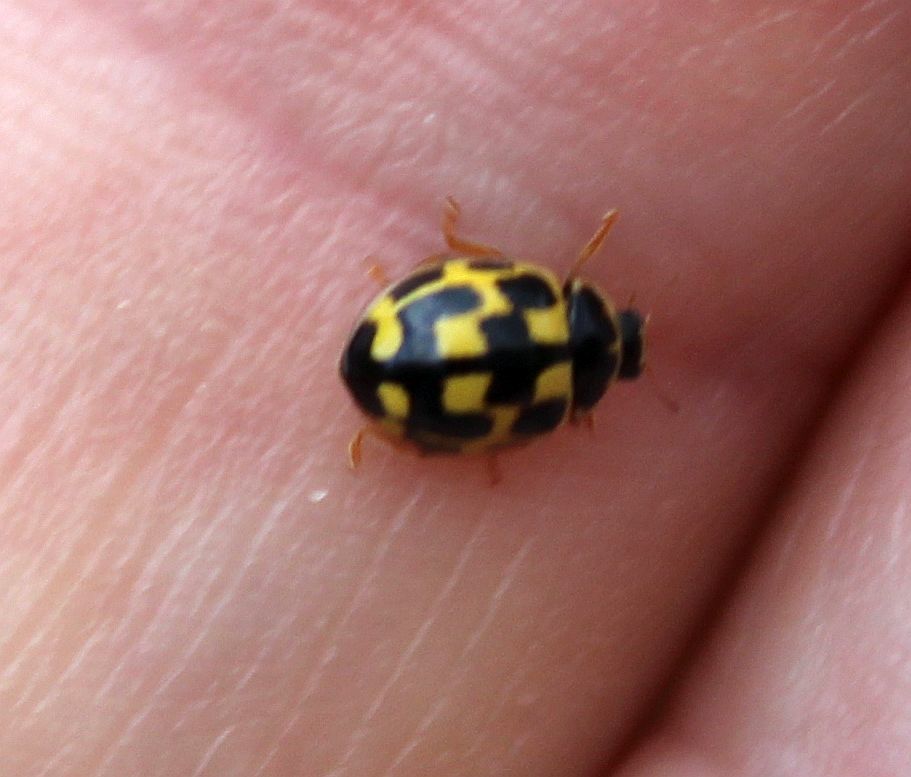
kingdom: Animalia
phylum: Arthropoda
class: Insecta
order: Coleoptera
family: Coccinellidae
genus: Propylaea
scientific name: Propylaea quatuordecimpunctata
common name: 14-spotted ladybird beetle
